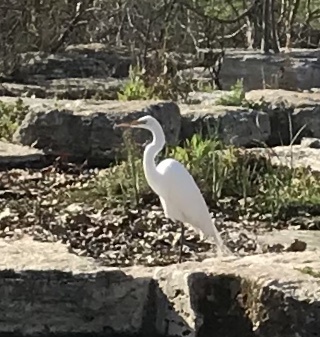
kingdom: Animalia
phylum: Chordata
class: Aves
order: Pelecaniformes
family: Ardeidae
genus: Ardea
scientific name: Ardea alba
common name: Great egret
